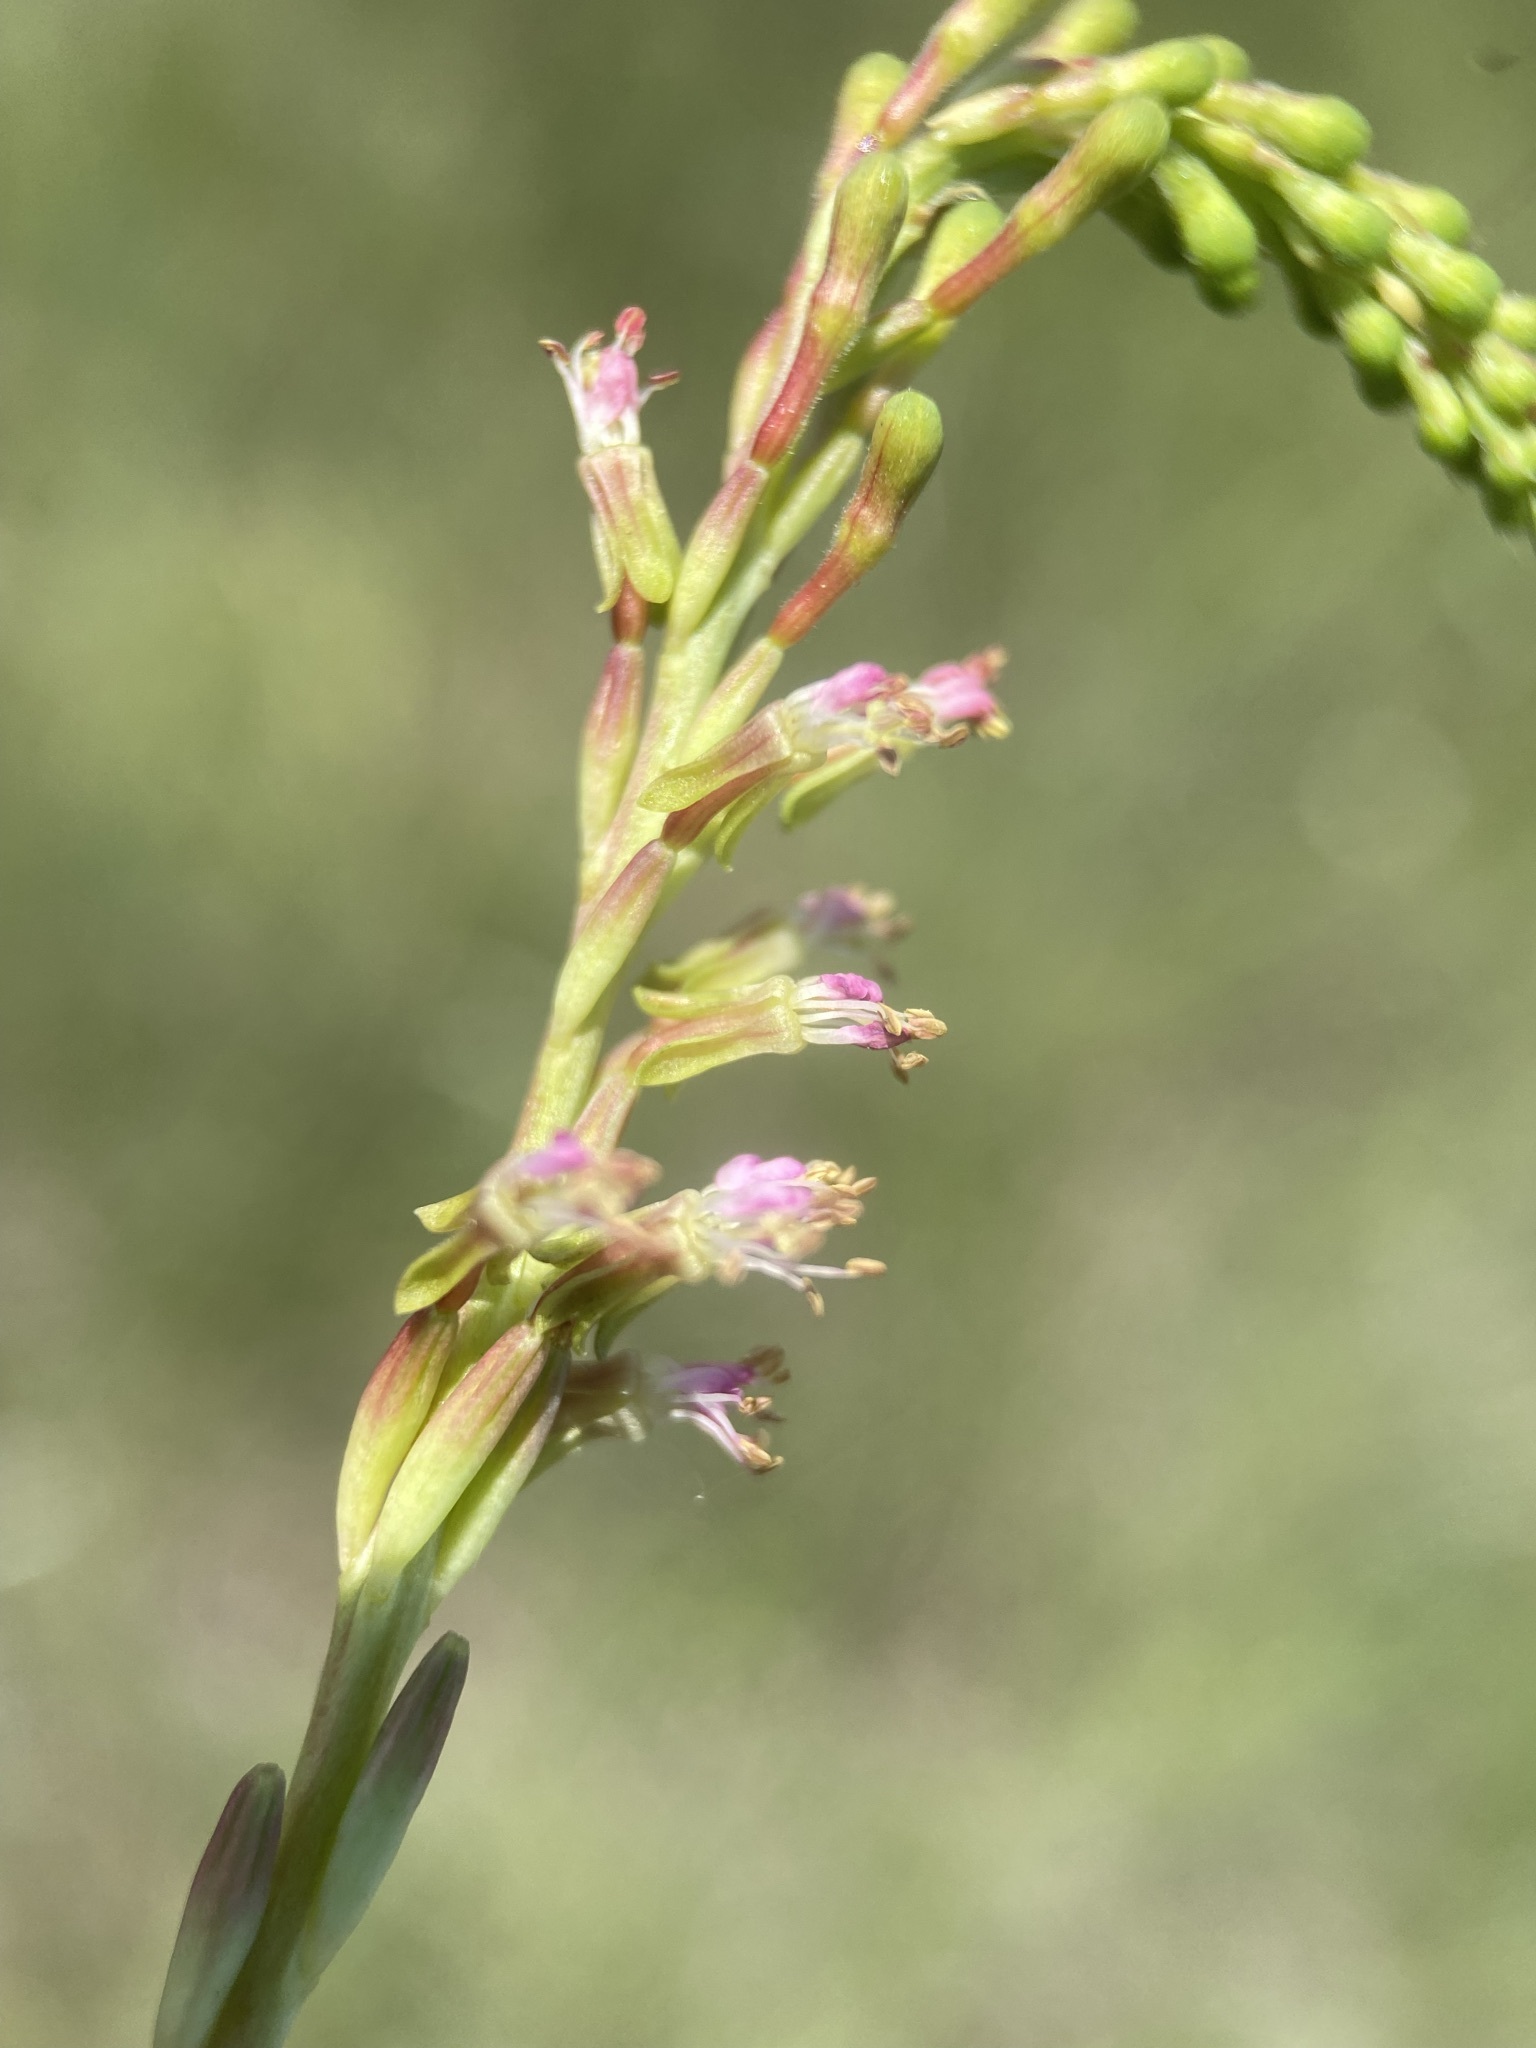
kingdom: Plantae
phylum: Tracheophyta
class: Magnoliopsida
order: Myrtales
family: Onagraceae
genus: Oenothera
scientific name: Oenothera curtiflora
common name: Velvetweed
